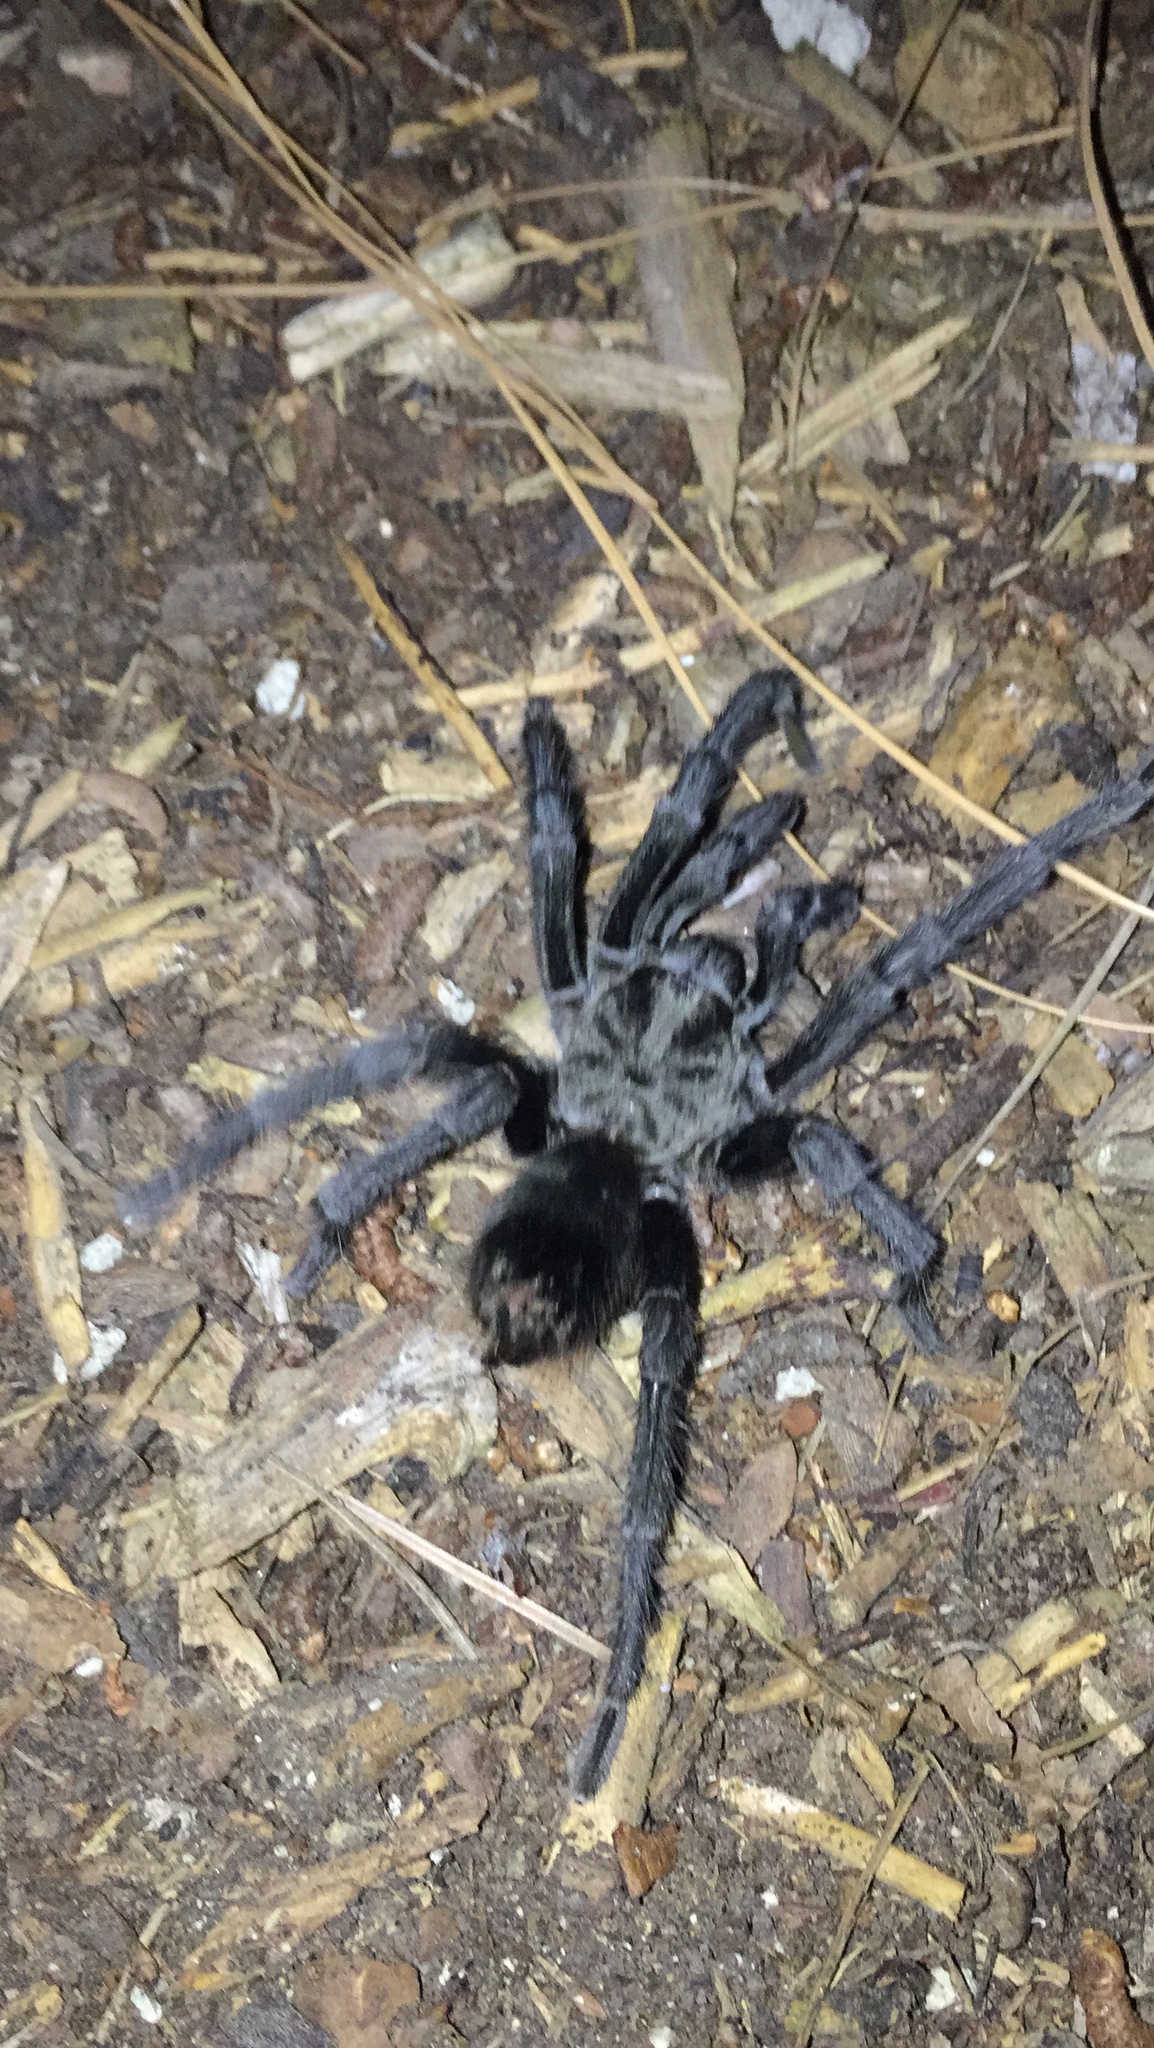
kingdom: Animalia
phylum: Arthropoda
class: Arachnida
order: Araneae
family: Theraphosidae
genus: Aphonopelma
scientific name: Aphonopelma steindachneri
